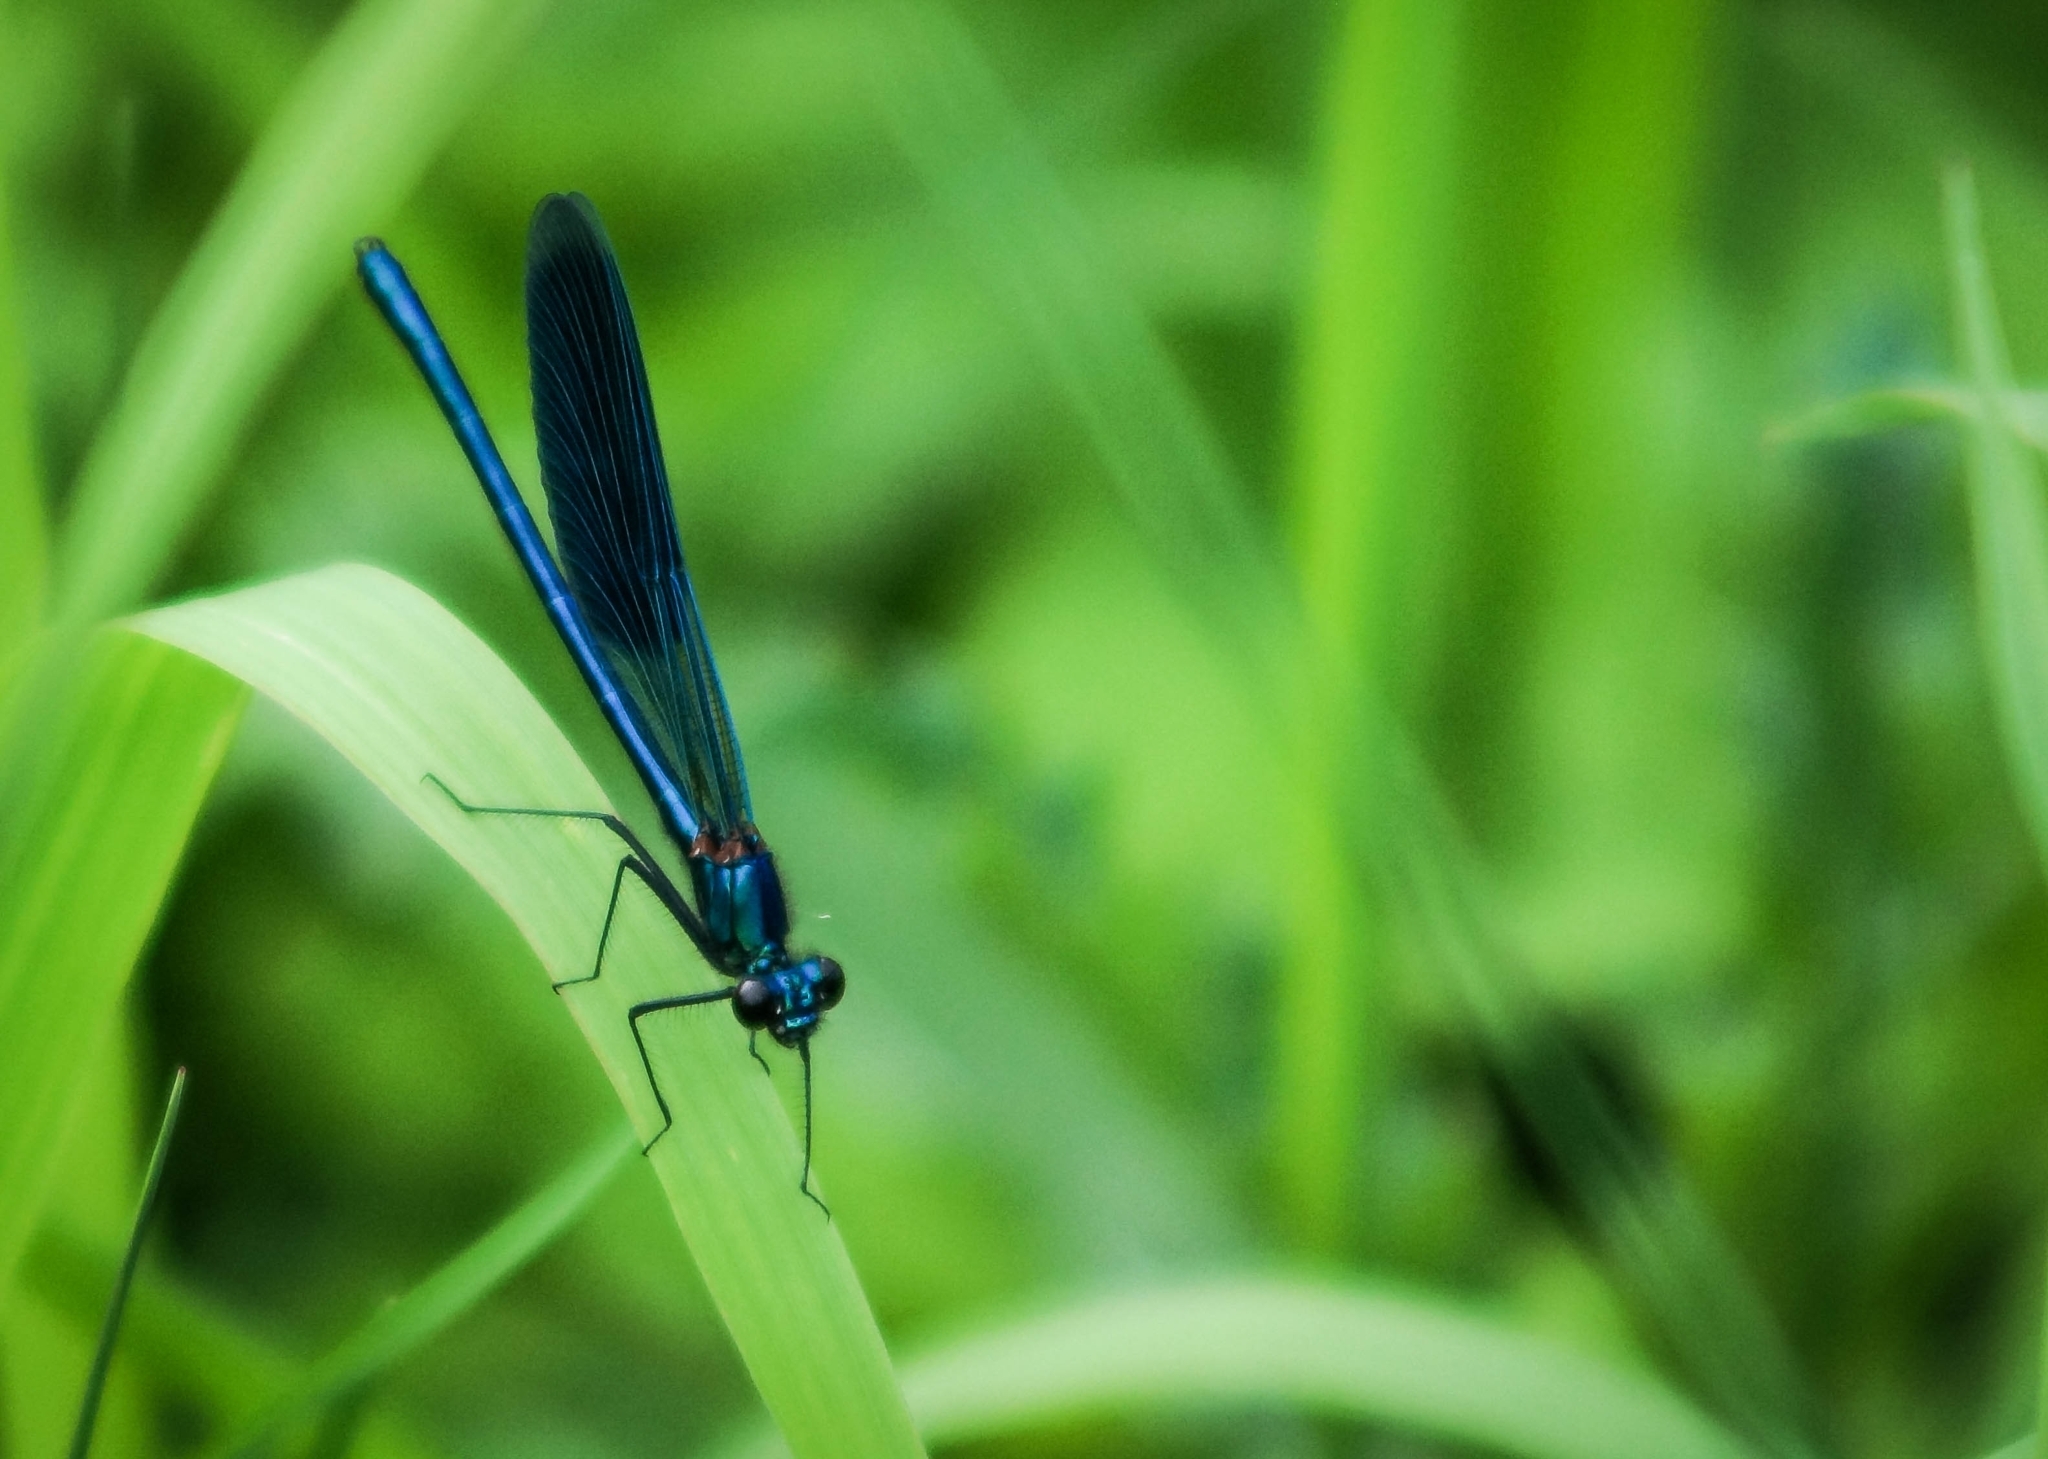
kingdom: Animalia
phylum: Arthropoda
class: Insecta
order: Odonata
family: Calopterygidae
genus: Calopteryx
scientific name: Calopteryx splendens
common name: Banded demoiselle
